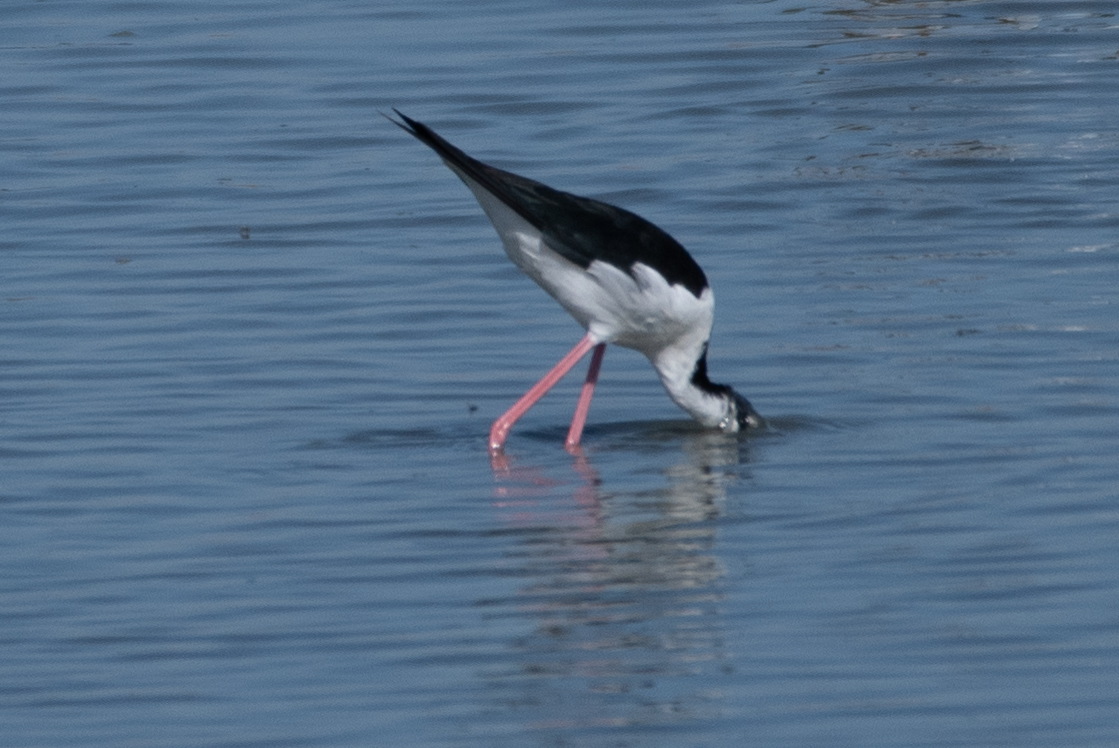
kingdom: Animalia
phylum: Chordata
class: Aves
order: Charadriiformes
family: Recurvirostridae
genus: Himantopus
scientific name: Himantopus mexicanus
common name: Black-necked stilt
